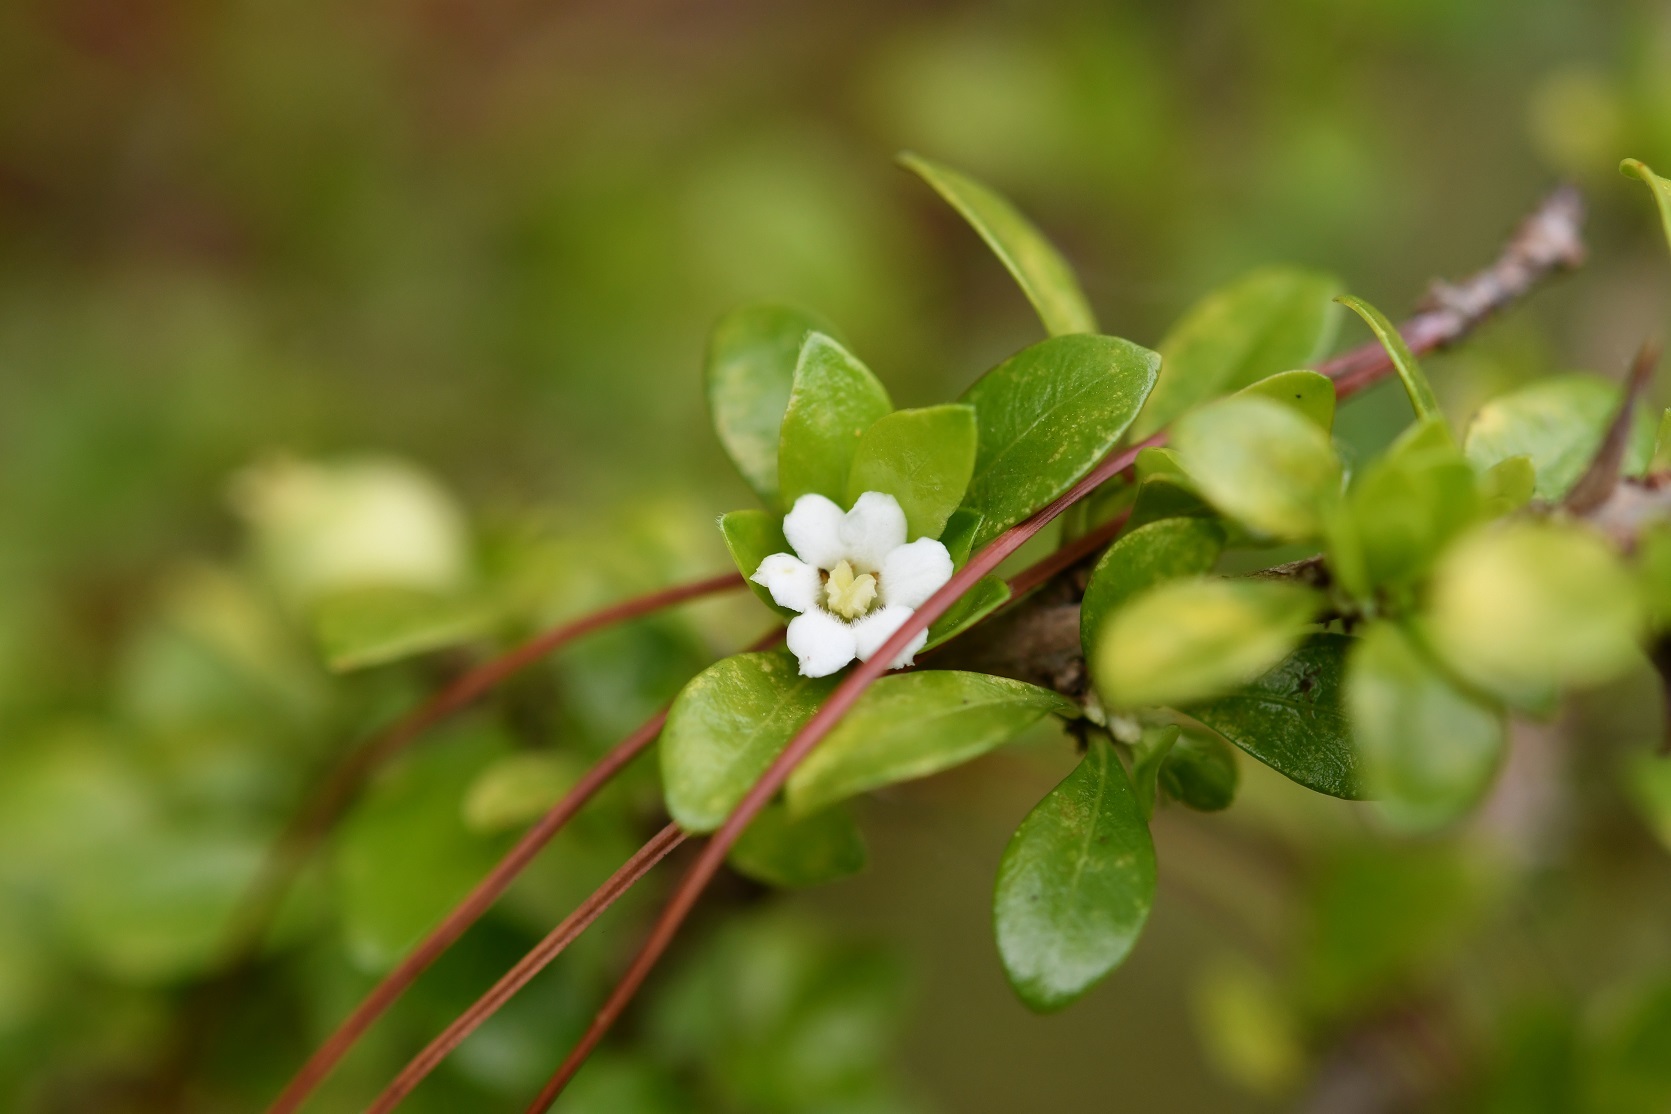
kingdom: Plantae
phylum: Tracheophyta
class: Magnoliopsida
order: Gentianales
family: Rubiaceae
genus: Randia
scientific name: Randia chiapensis
